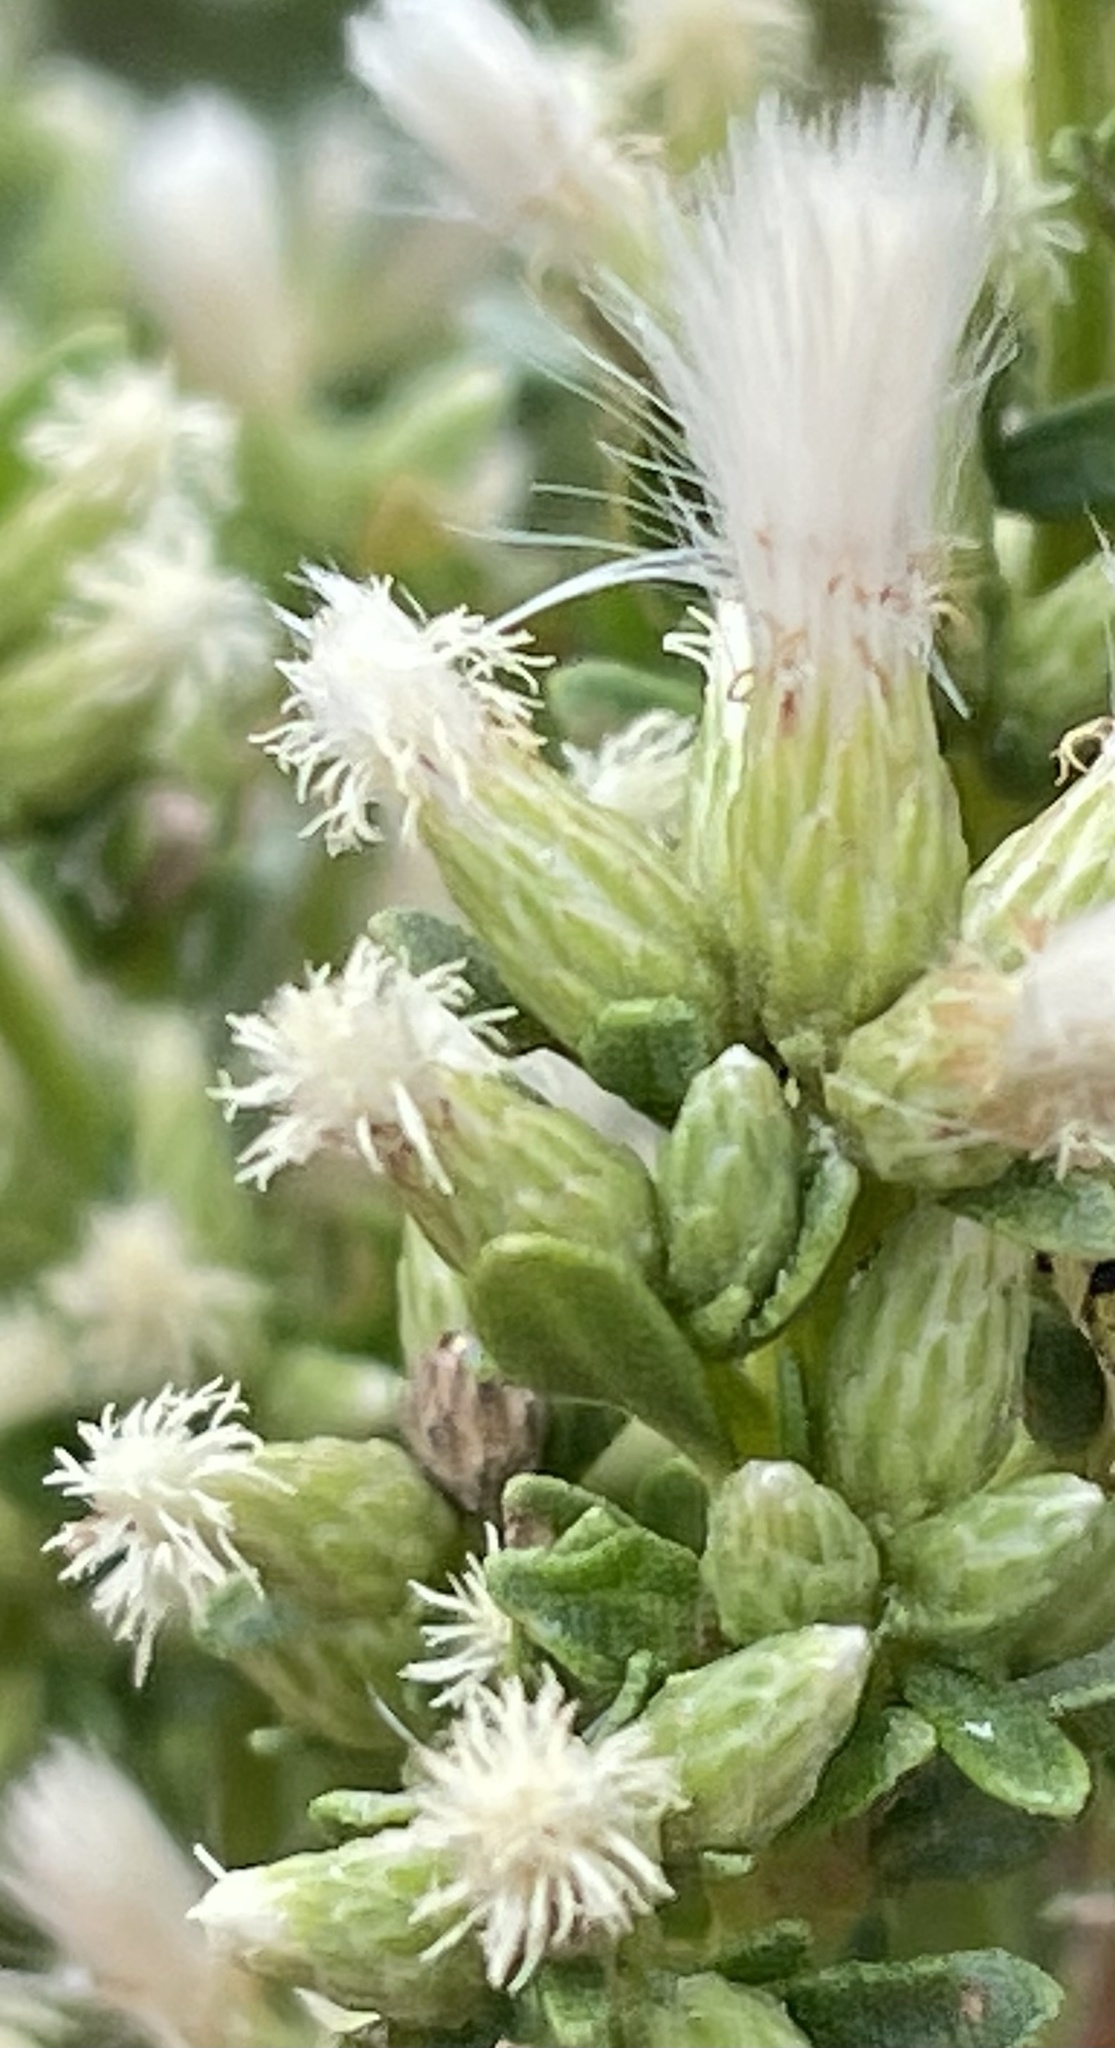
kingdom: Plantae
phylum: Tracheophyta
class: Magnoliopsida
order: Asterales
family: Asteraceae
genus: Baccharis
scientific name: Baccharis pilularis
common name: Coyotebrush
